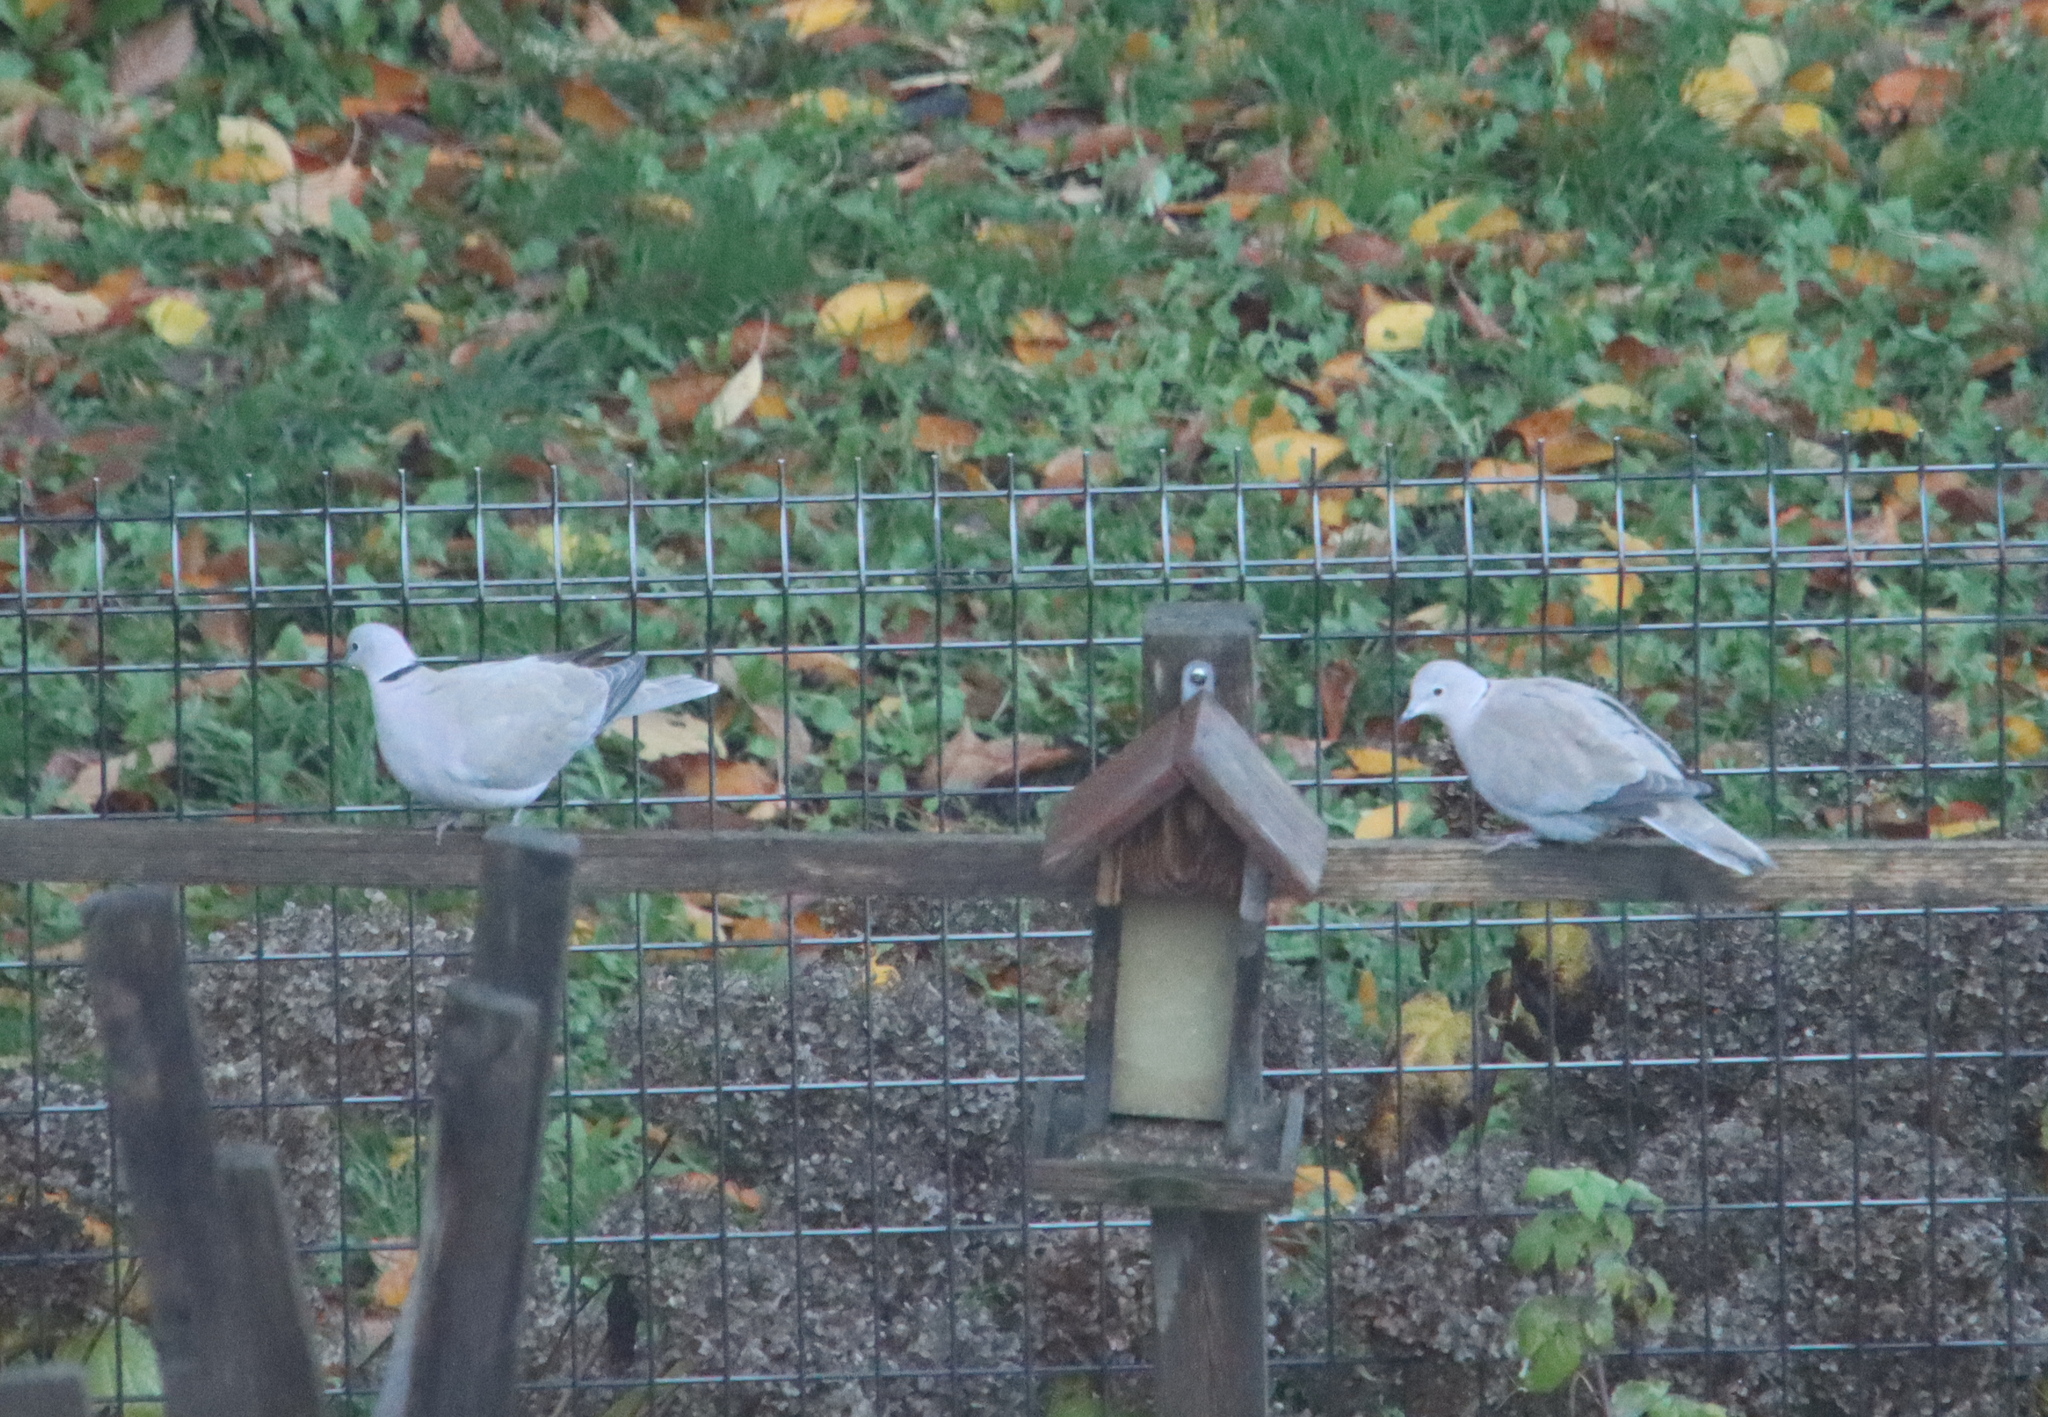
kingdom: Animalia
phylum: Chordata
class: Aves
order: Columbiformes
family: Columbidae
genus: Streptopelia
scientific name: Streptopelia decaocto
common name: Eurasian collared dove
